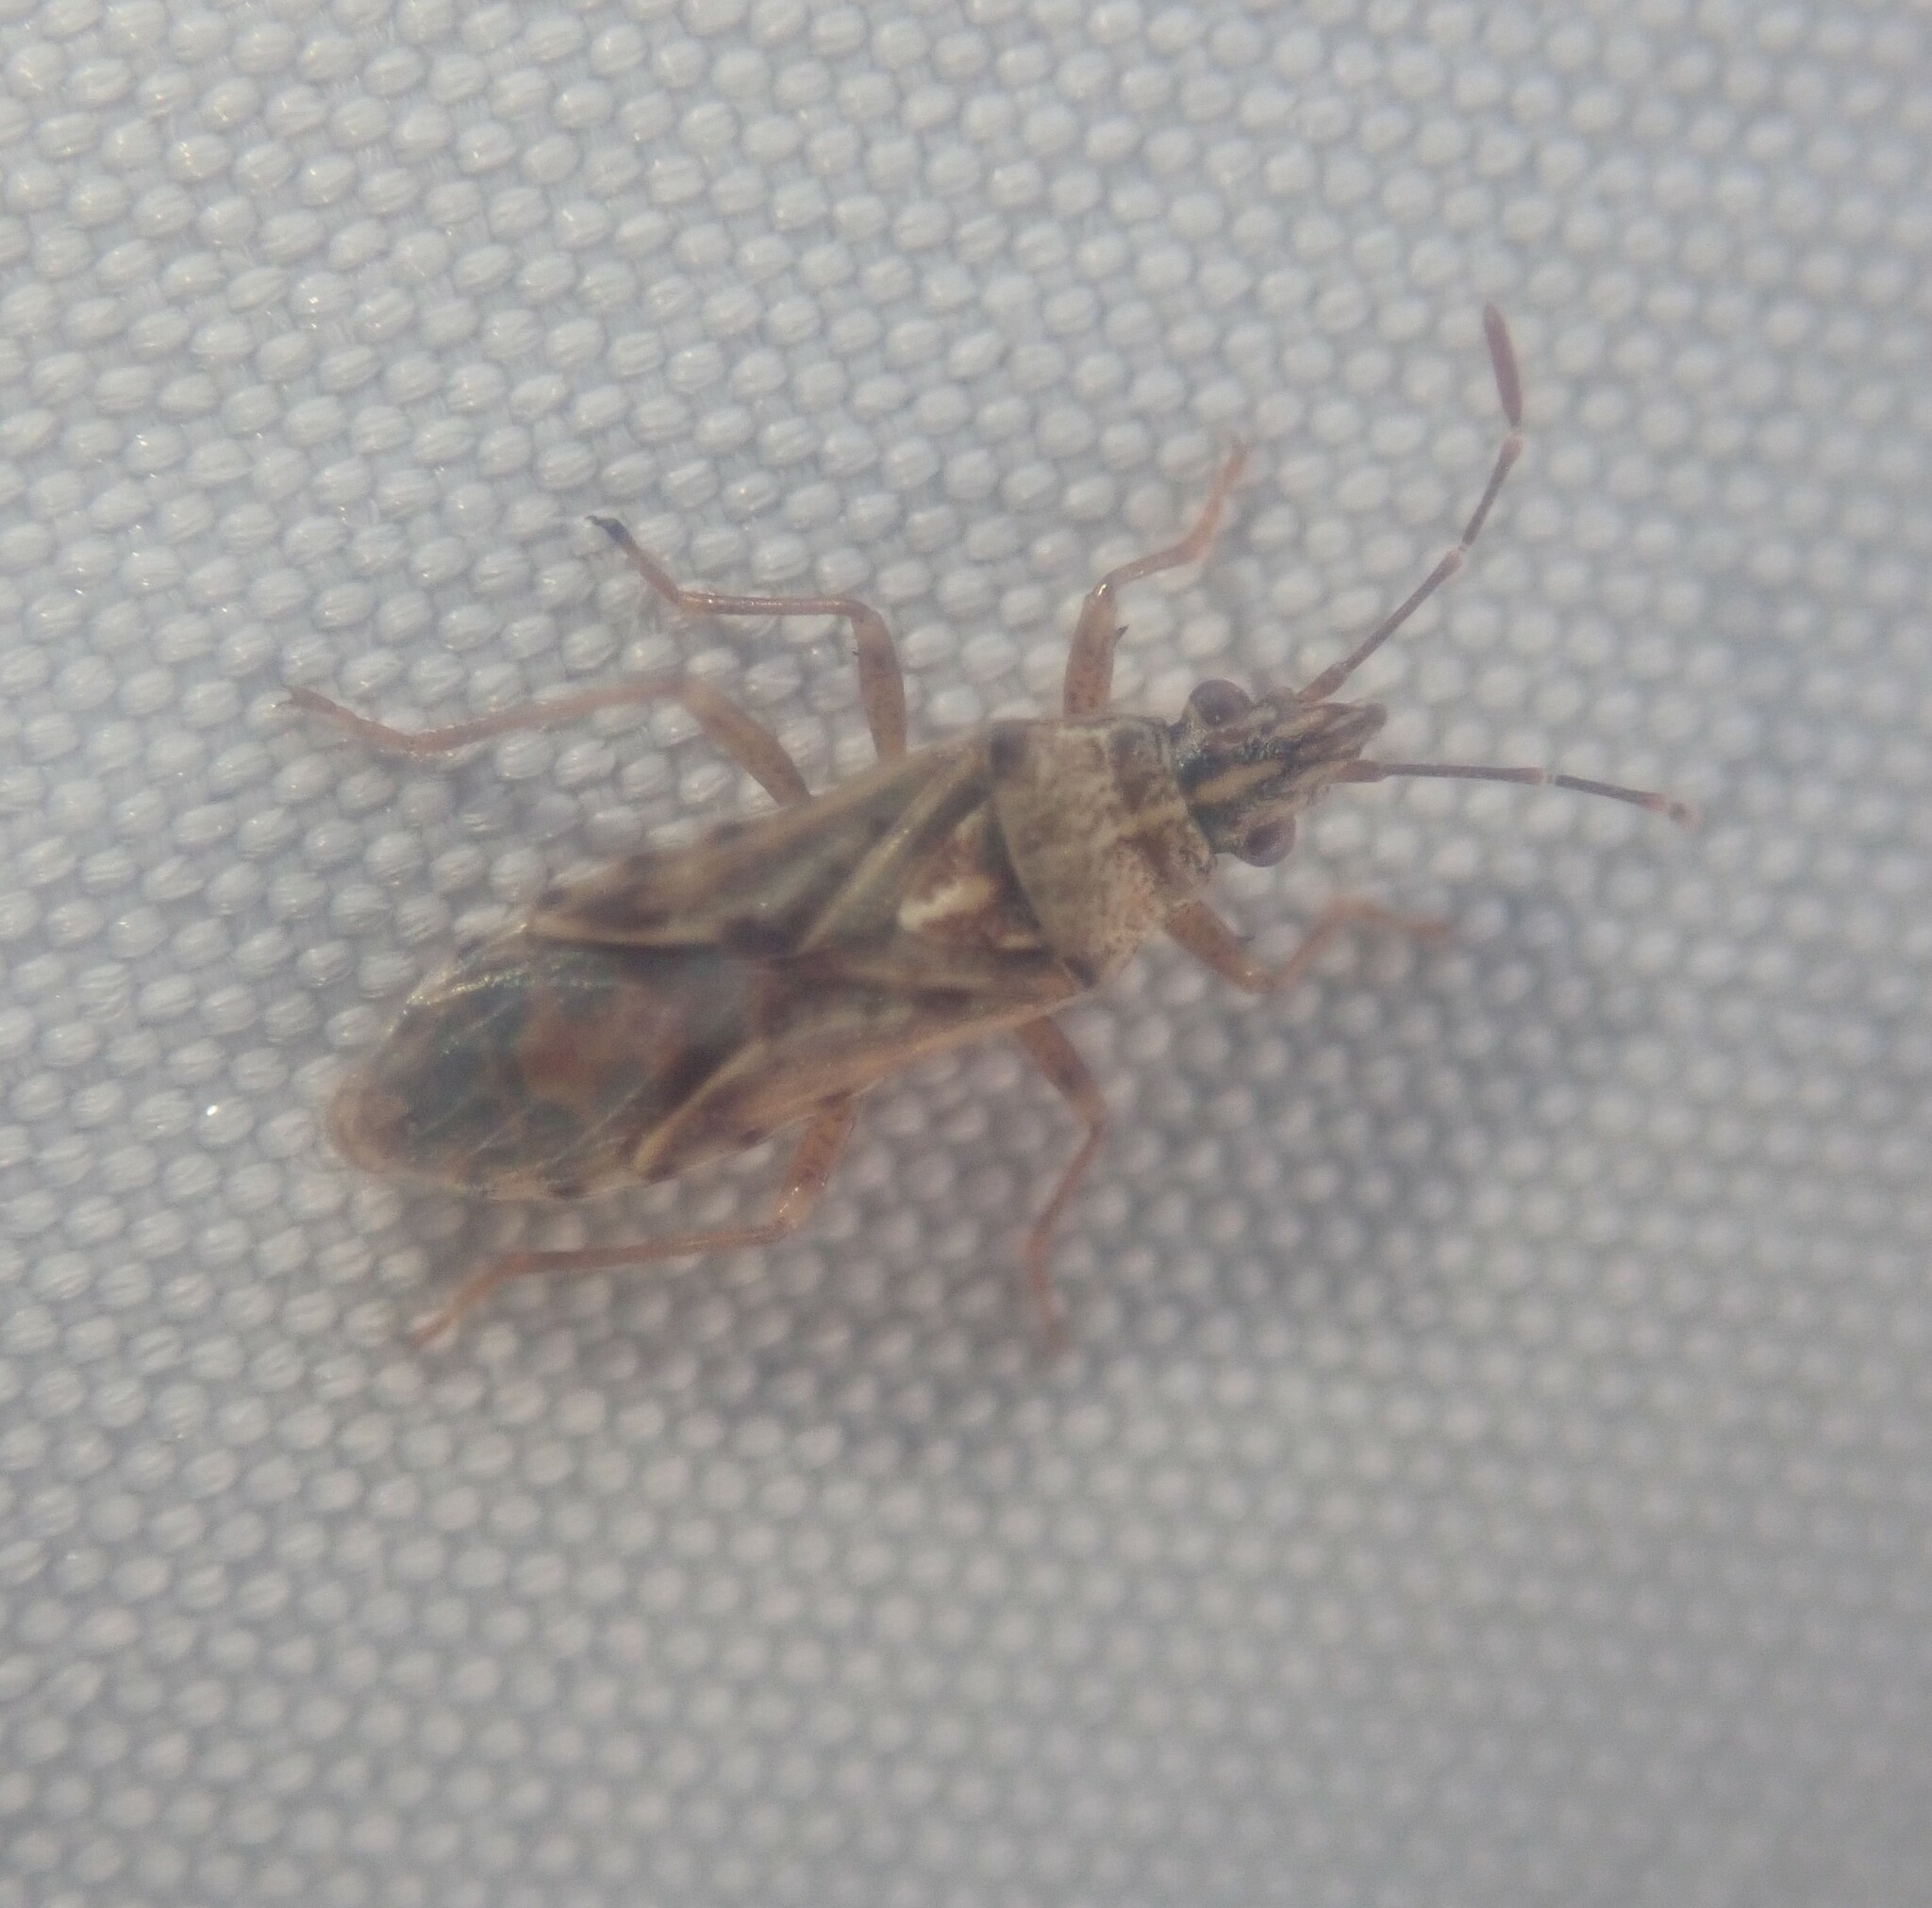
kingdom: Animalia
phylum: Arthropoda
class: Insecta
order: Hemiptera
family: Lygaeidae
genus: Belonochilus
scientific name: Belonochilus numenius
